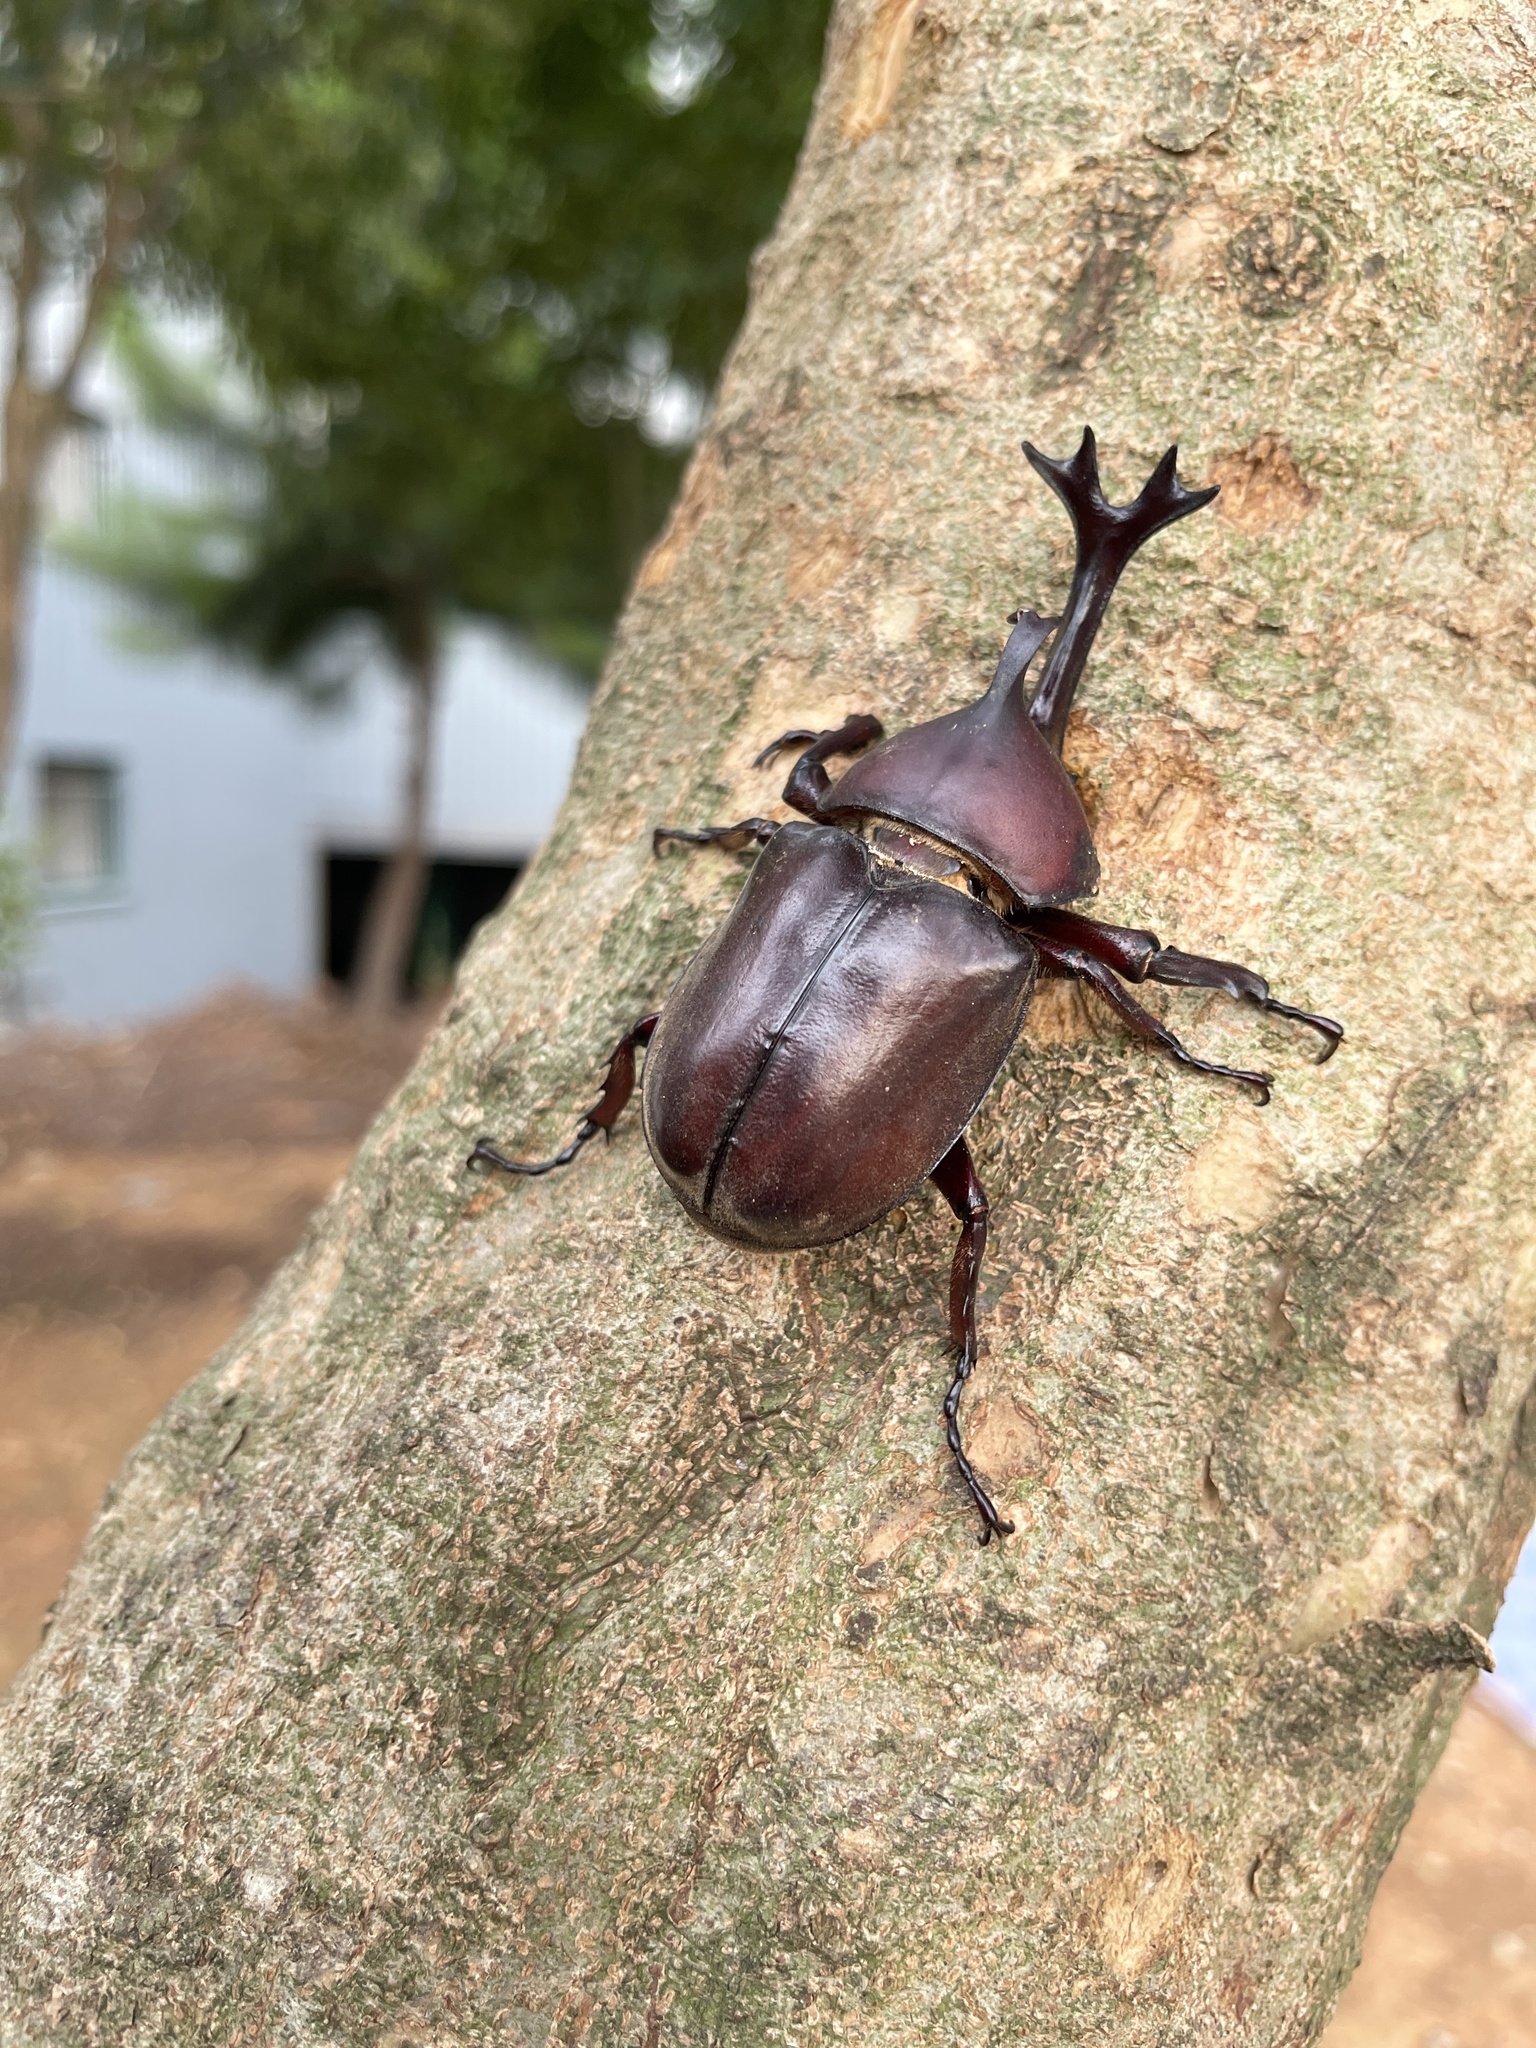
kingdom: Animalia
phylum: Arthropoda
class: Insecta
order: Coleoptera
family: Scarabaeidae
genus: Trypoxylus
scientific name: Trypoxylus dichotomus
